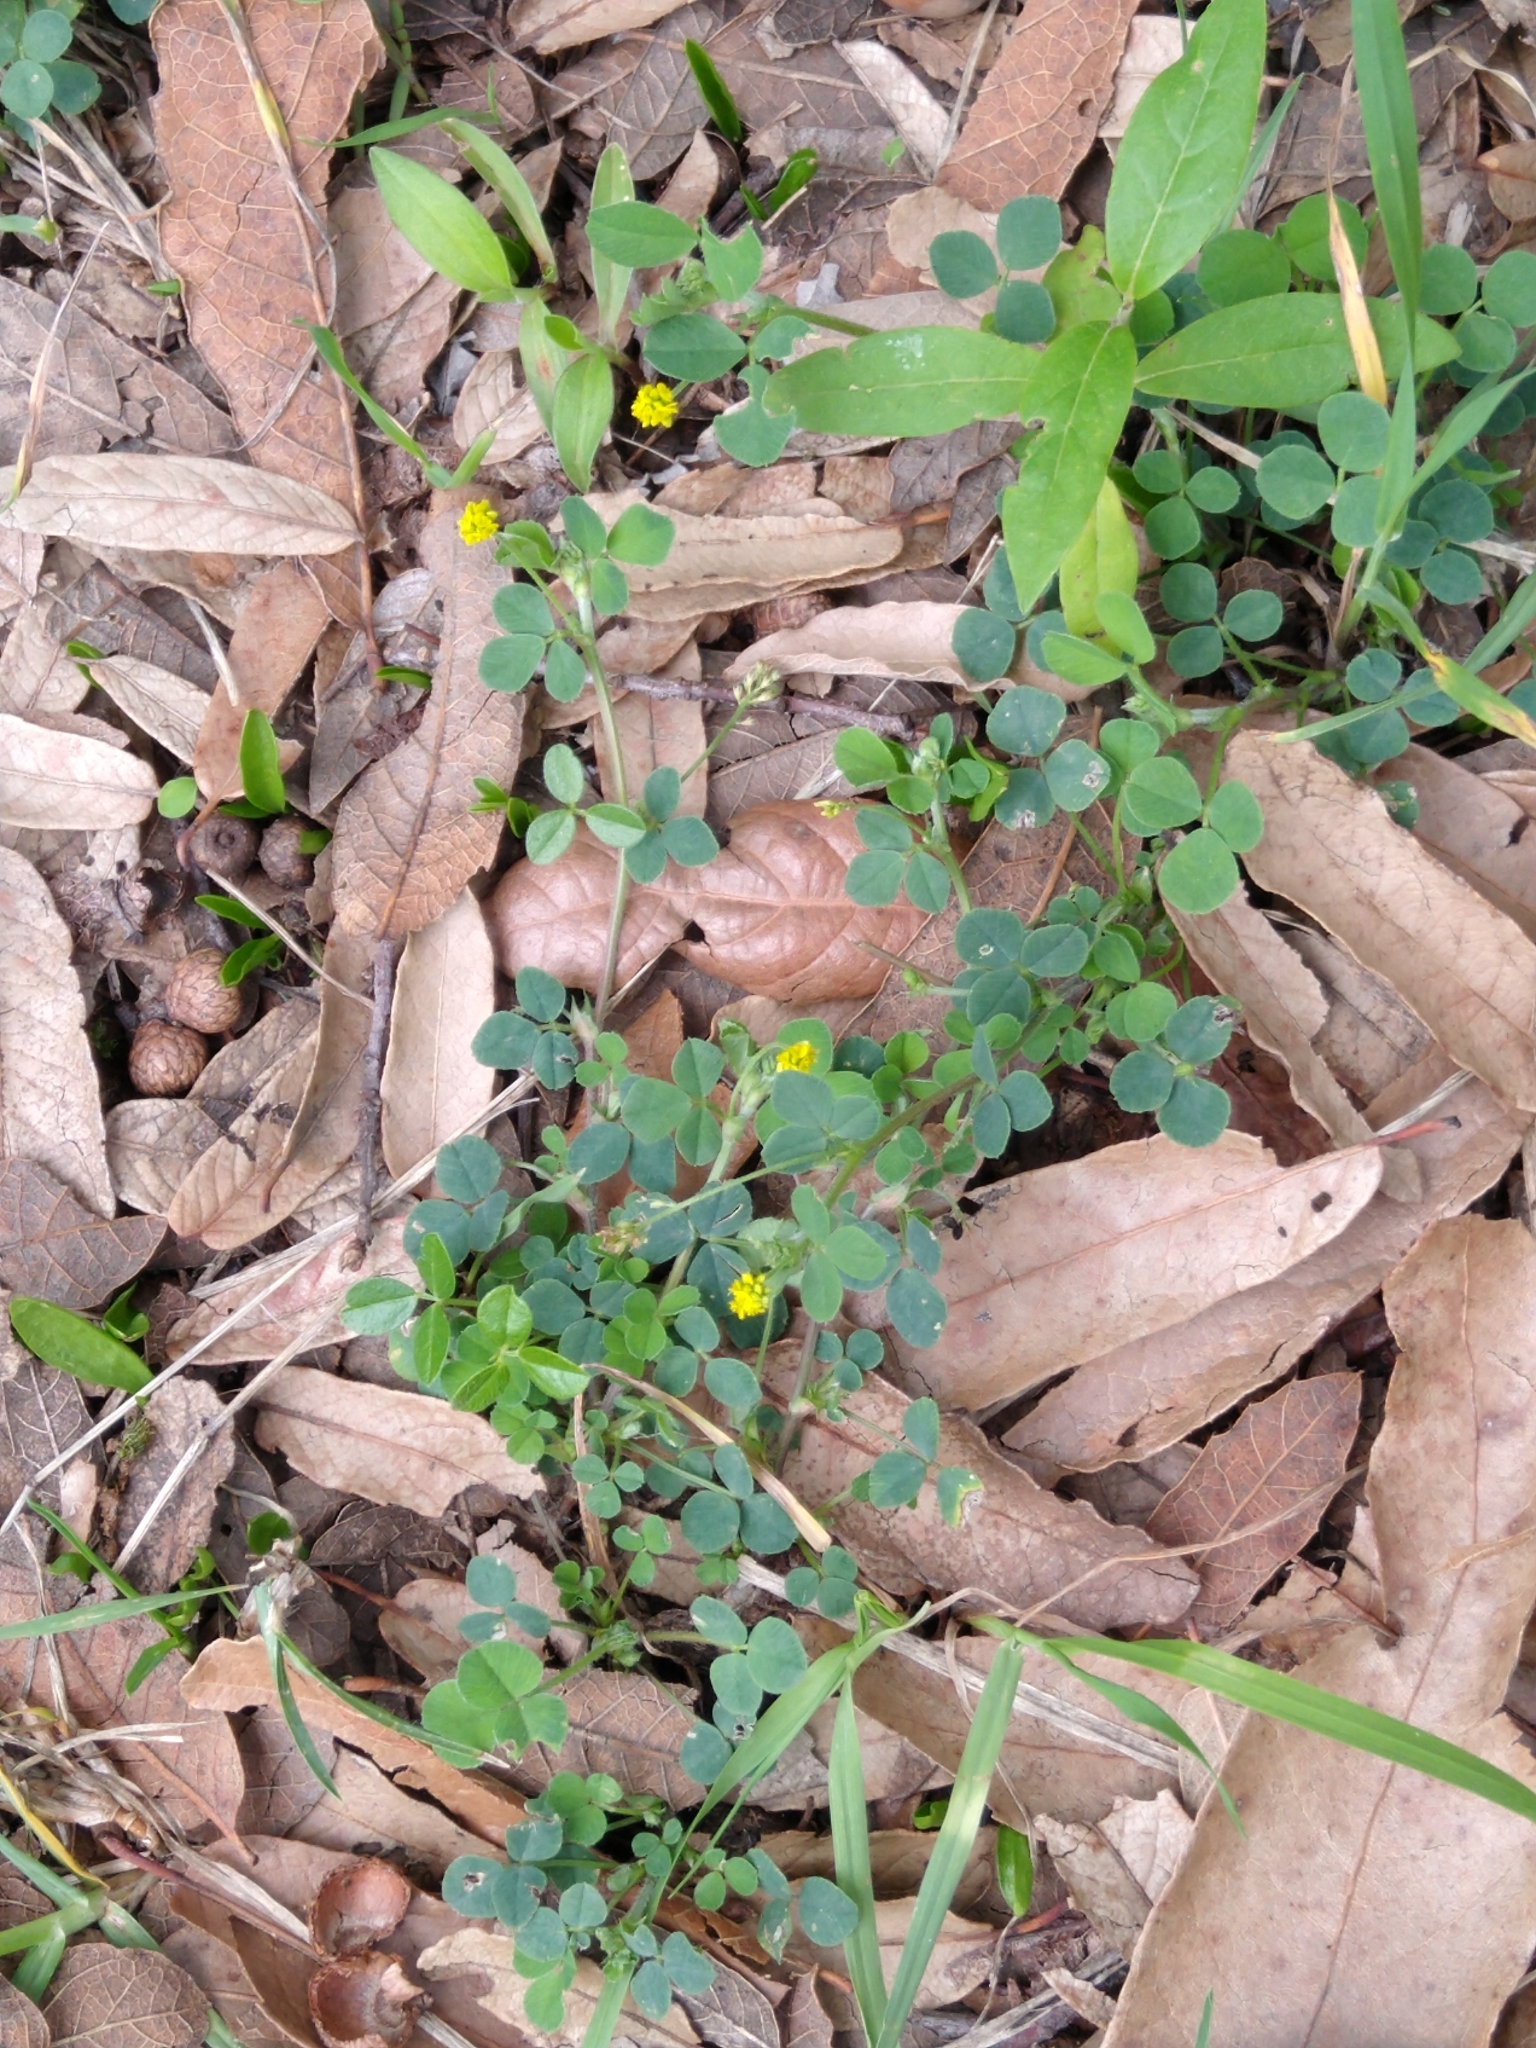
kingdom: Plantae
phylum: Tracheophyta
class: Magnoliopsida
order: Fabales
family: Fabaceae
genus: Medicago
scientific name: Medicago lupulina
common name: Black medick
